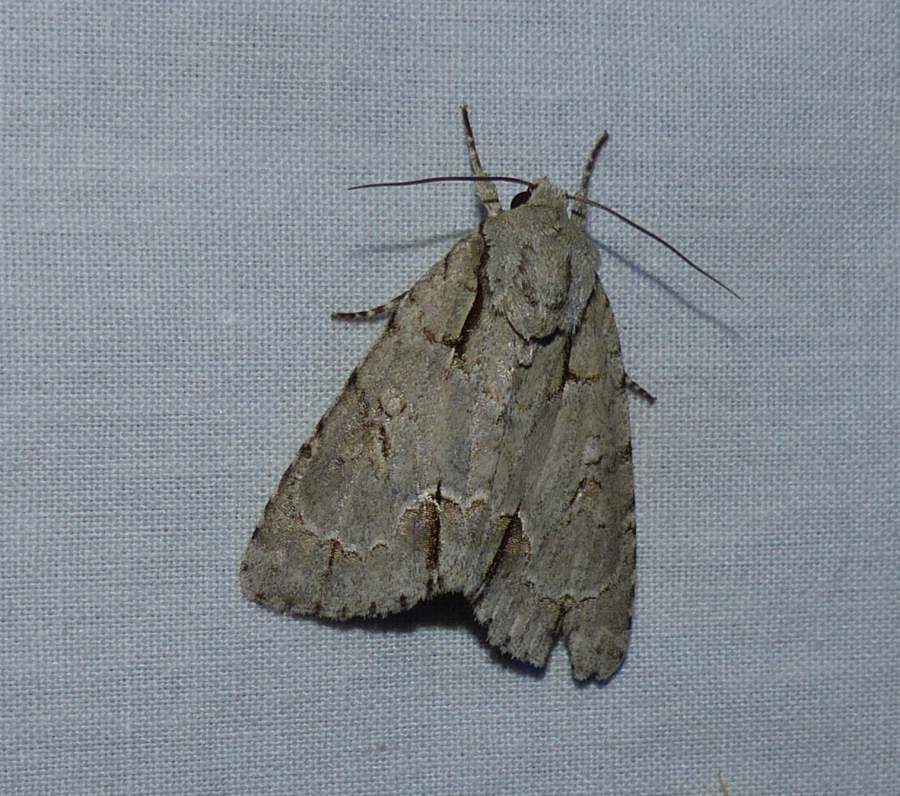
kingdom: Animalia
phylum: Arthropoda
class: Insecta
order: Lepidoptera
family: Noctuidae
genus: Acronicta
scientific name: Acronicta morula
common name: Ochre dagger
